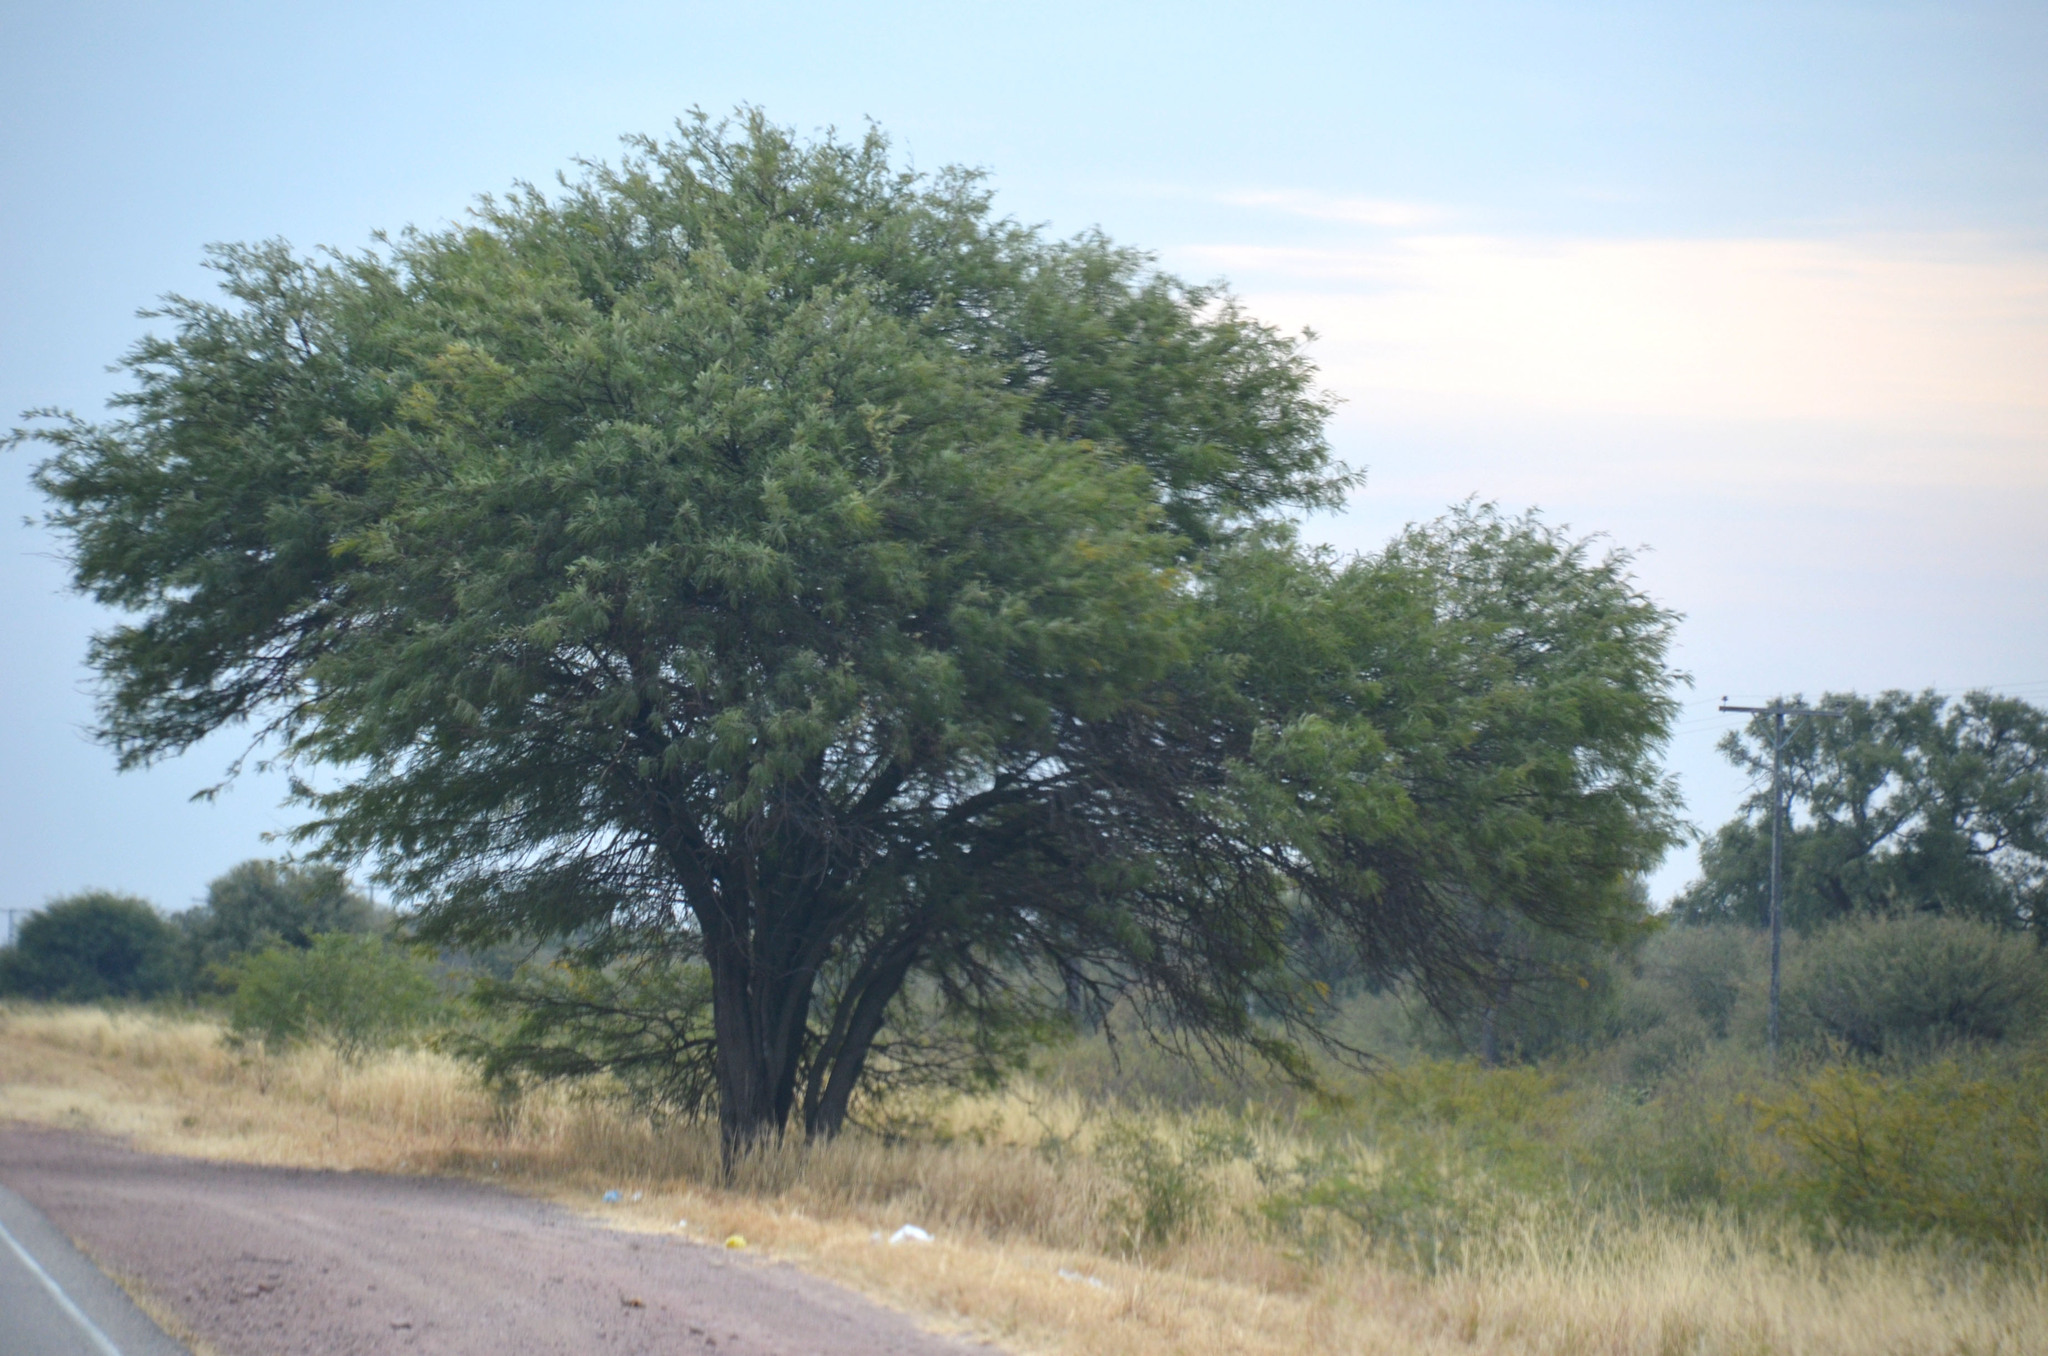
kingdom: Plantae
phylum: Tracheophyta
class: Magnoliopsida
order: Fabales
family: Fabaceae
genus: Prosopis
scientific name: Prosopis alba
